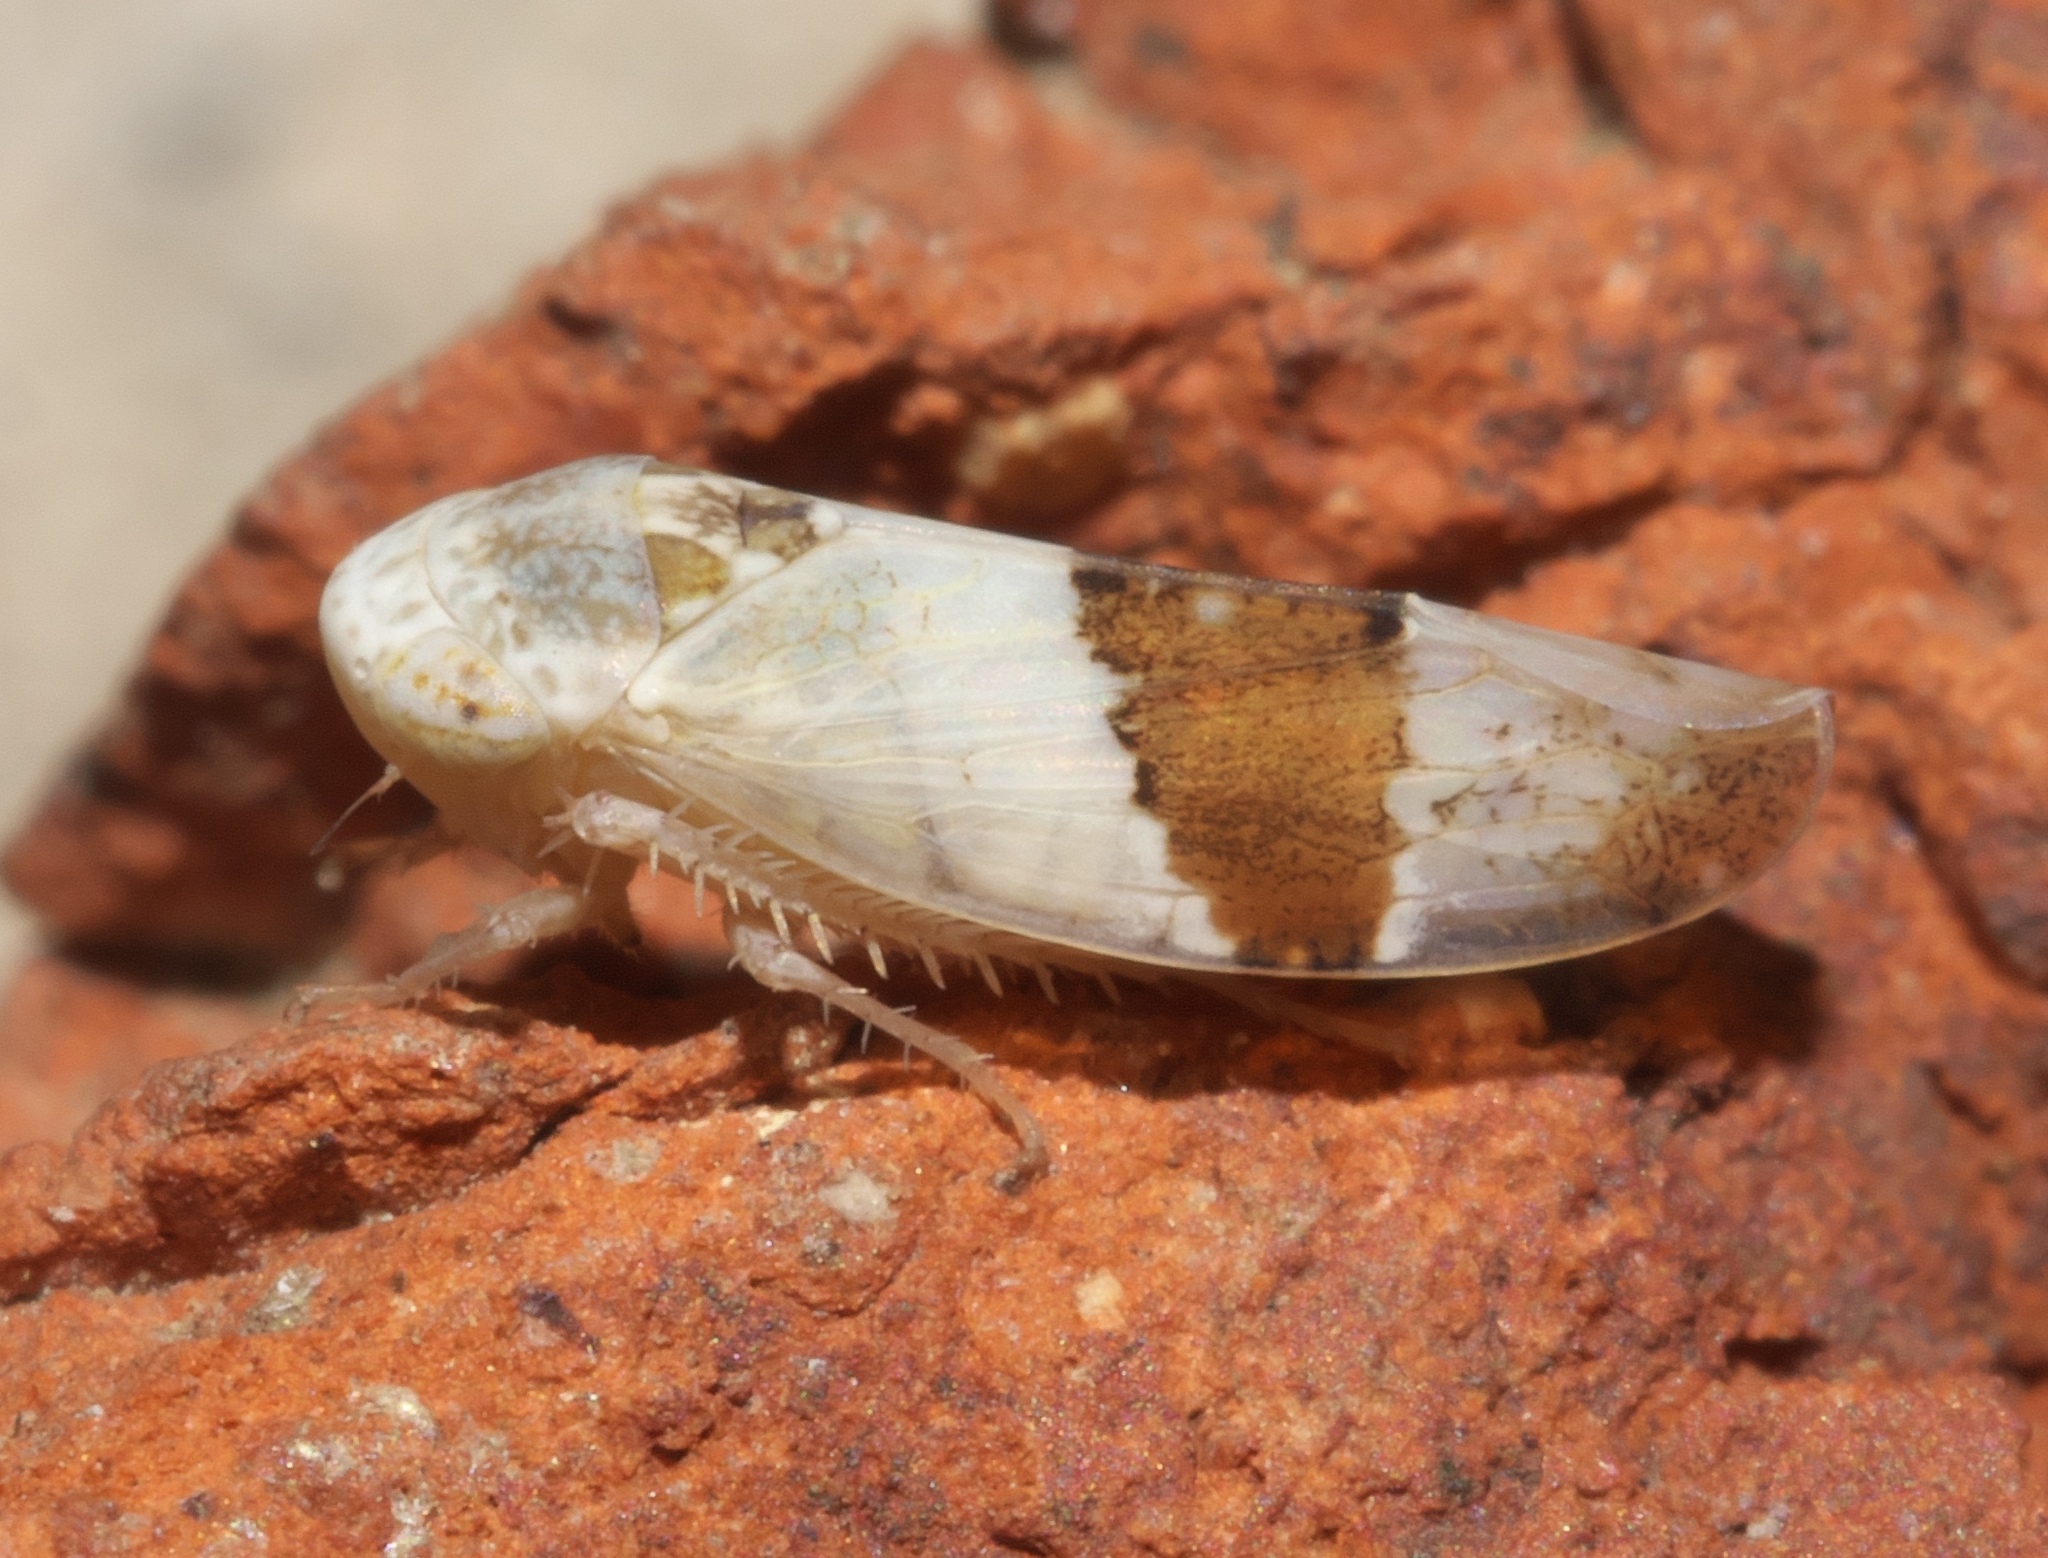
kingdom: Animalia
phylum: Arthropoda
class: Insecta
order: Hemiptera
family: Cicadellidae
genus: Norvellina
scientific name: Norvellina seminuda
